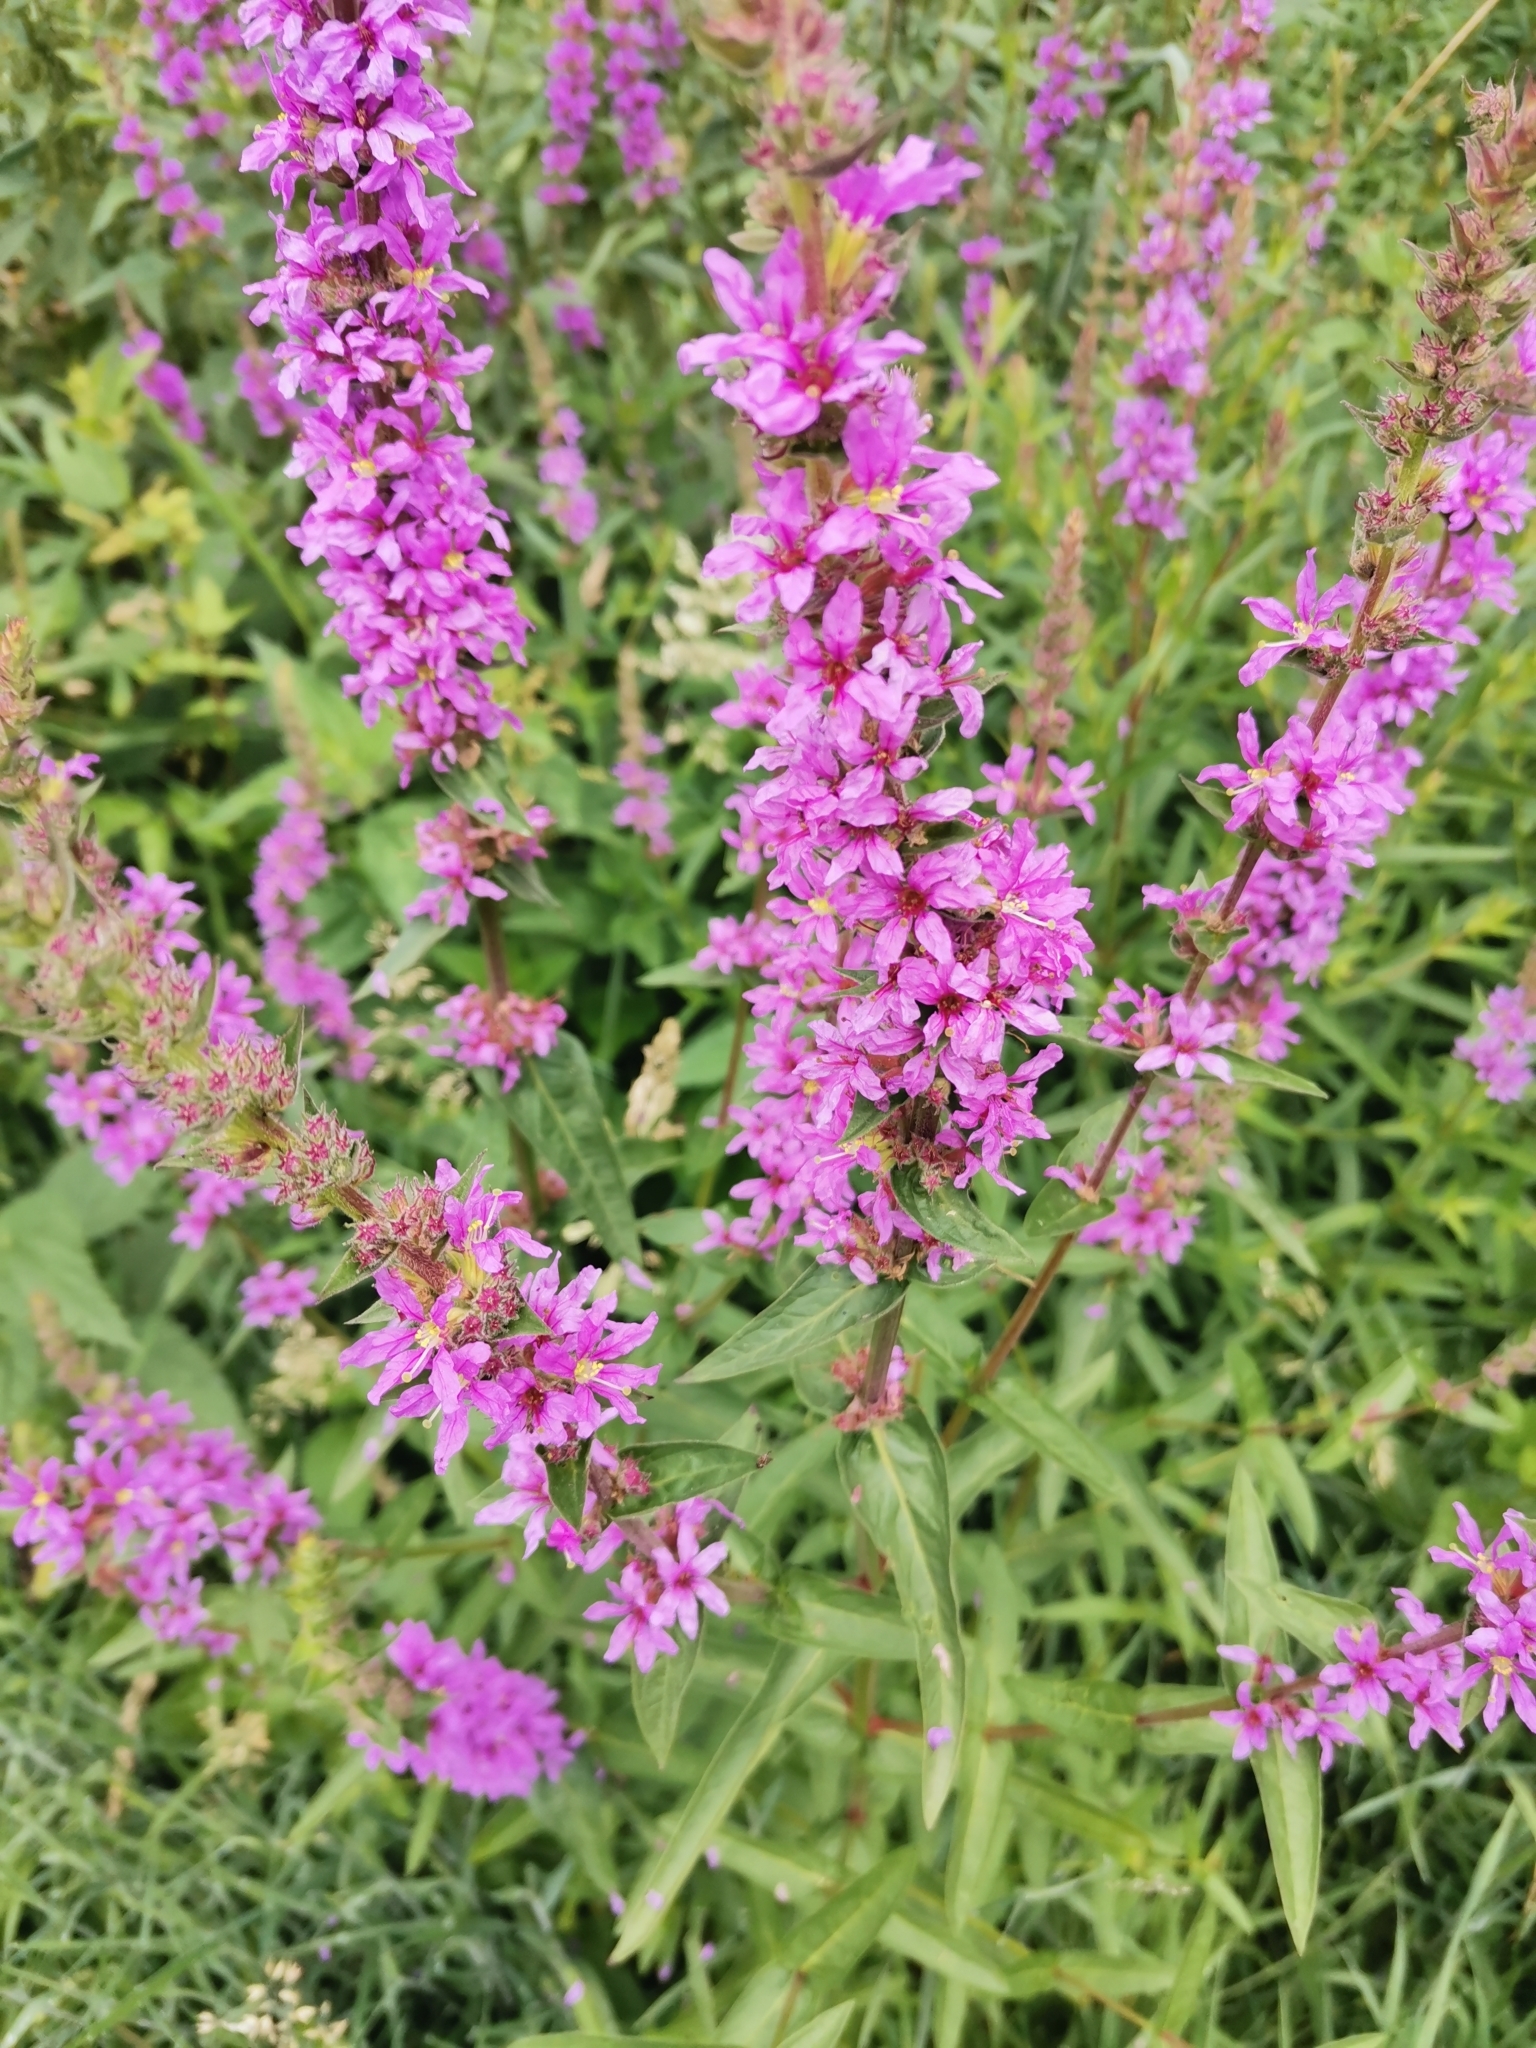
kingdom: Plantae
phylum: Tracheophyta
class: Magnoliopsida
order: Myrtales
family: Lythraceae
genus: Lythrum
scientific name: Lythrum salicaria
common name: Purple loosestrife
